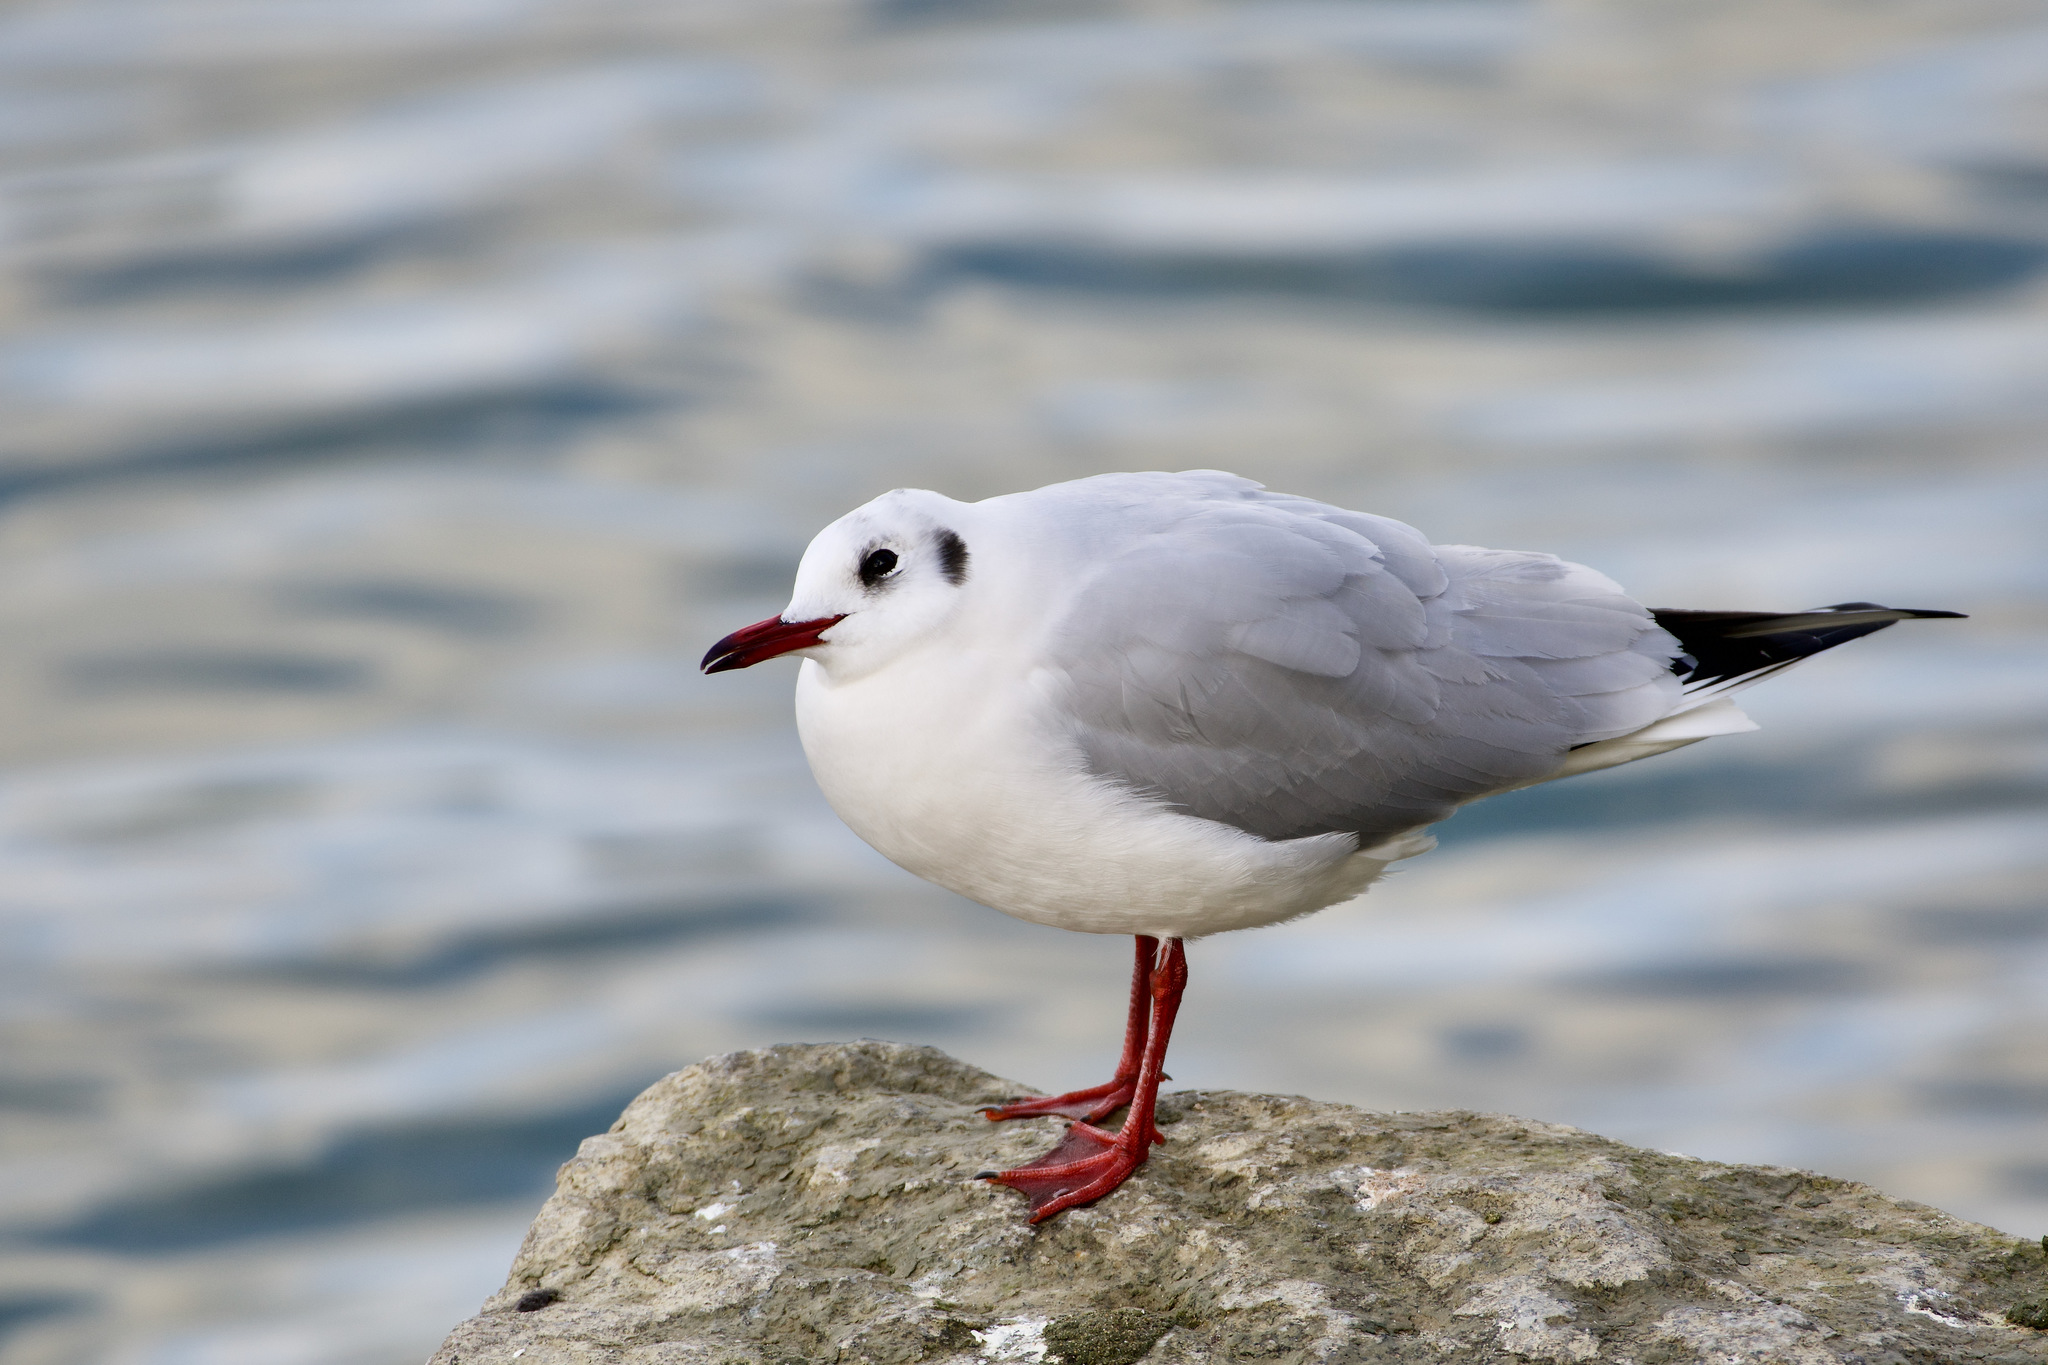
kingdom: Animalia
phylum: Chordata
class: Aves
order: Charadriiformes
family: Laridae
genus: Chroicocephalus
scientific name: Chroicocephalus ridibundus
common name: Black-headed gull
